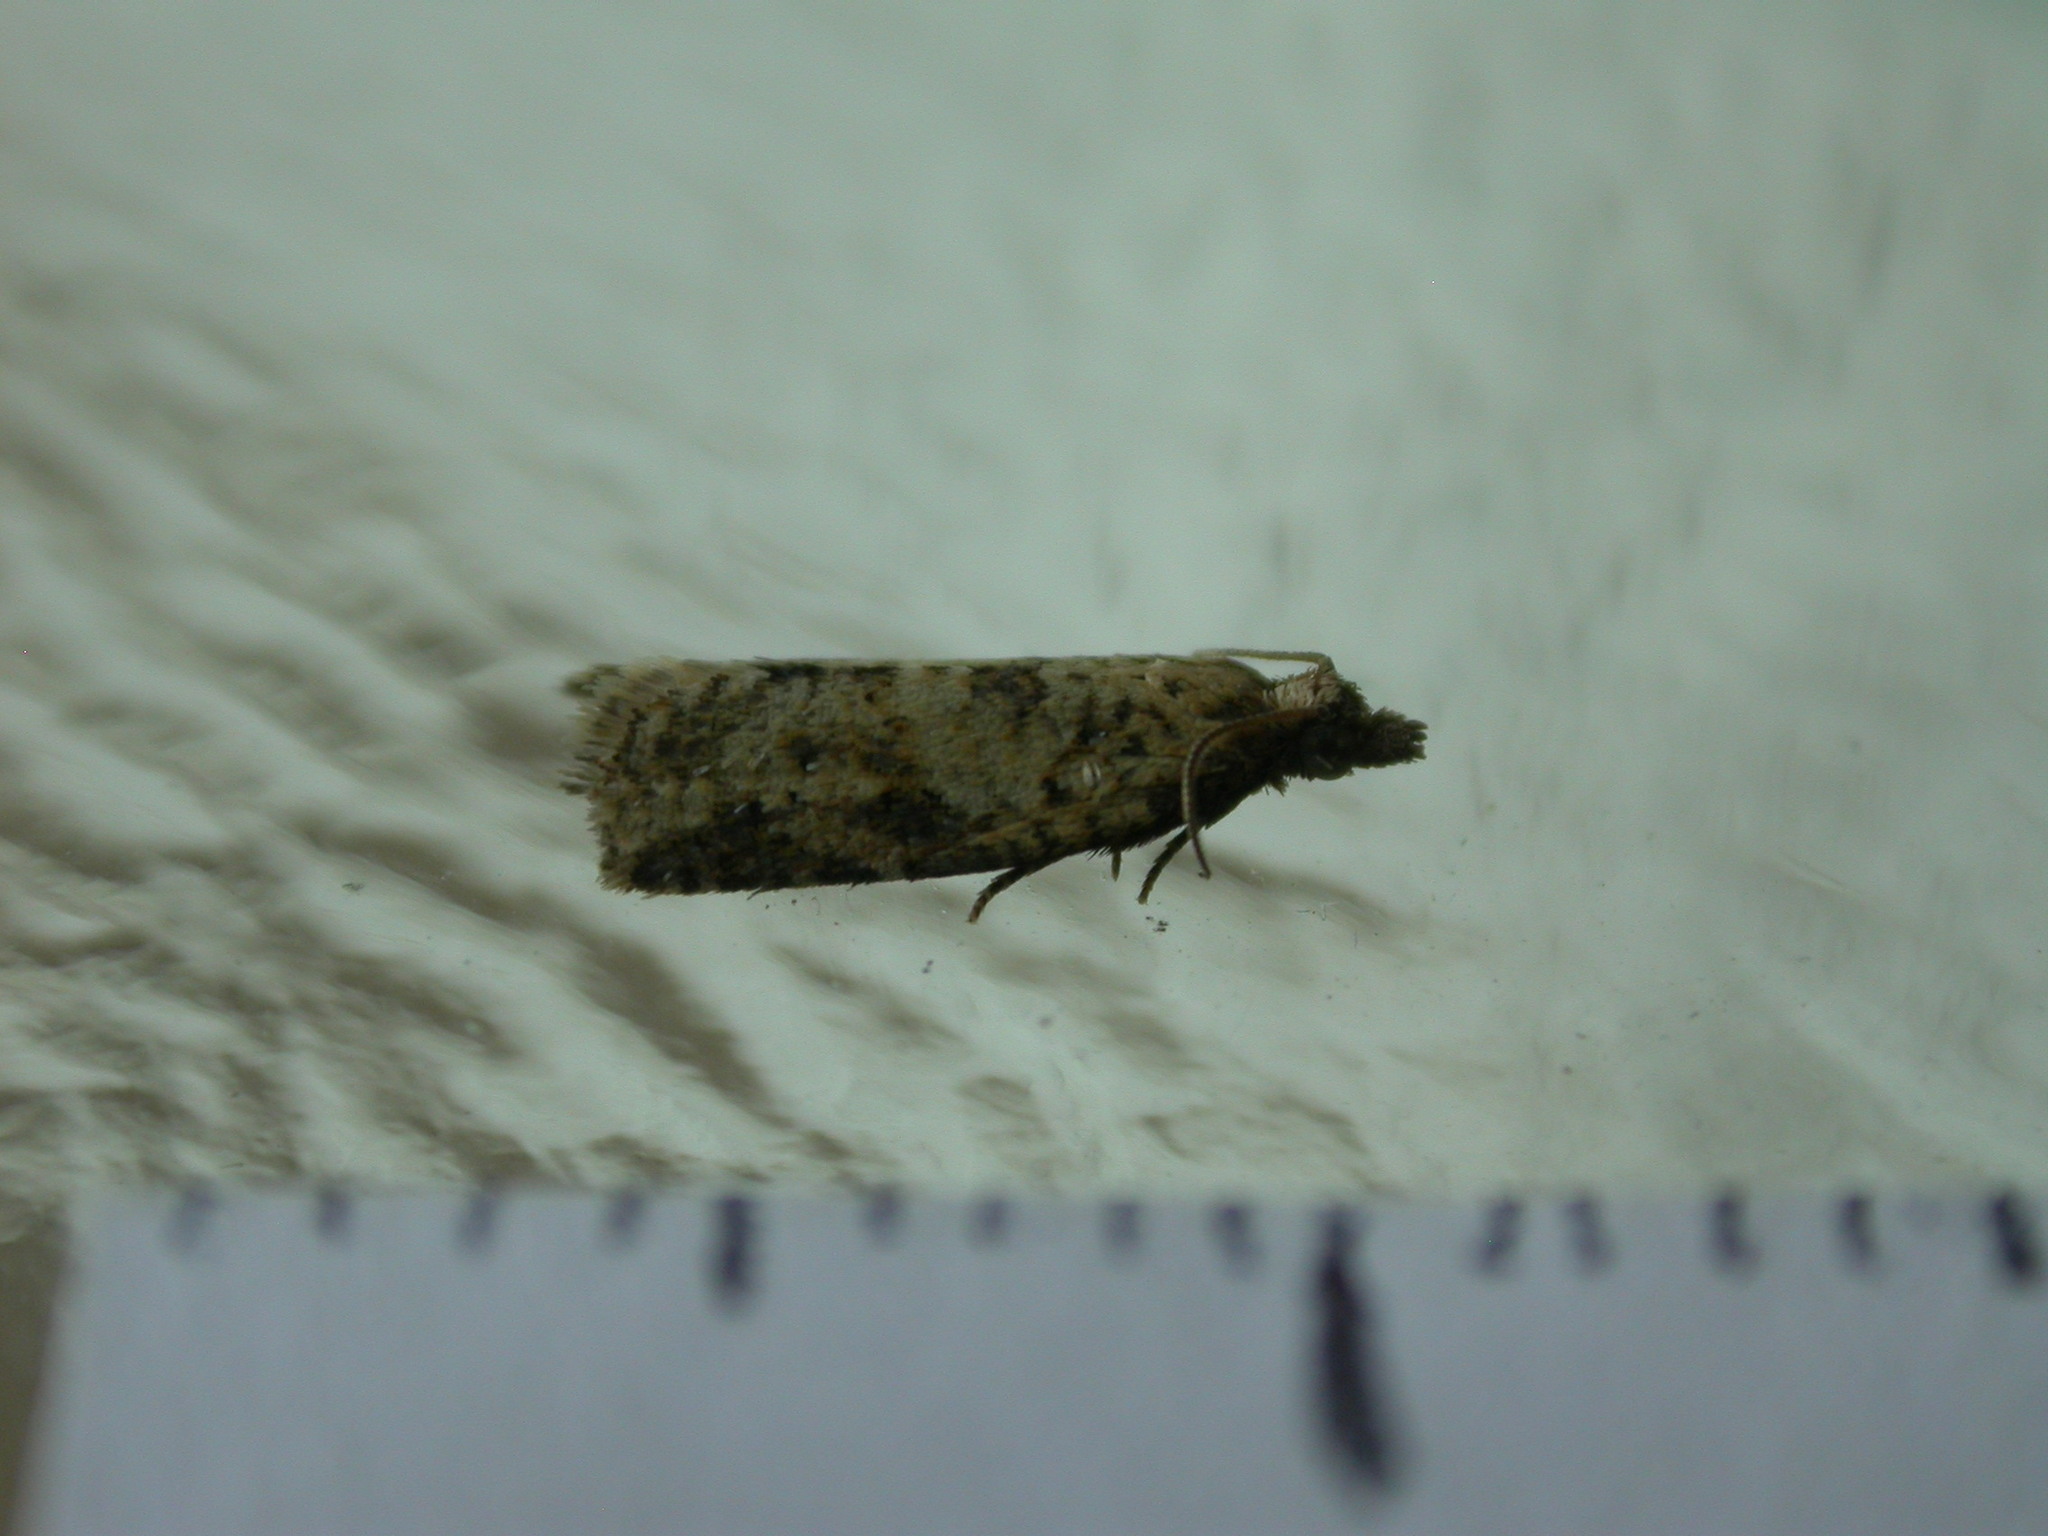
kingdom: Animalia
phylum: Arthropoda
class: Insecta
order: Lepidoptera
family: Tortricidae
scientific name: Tortricidae
